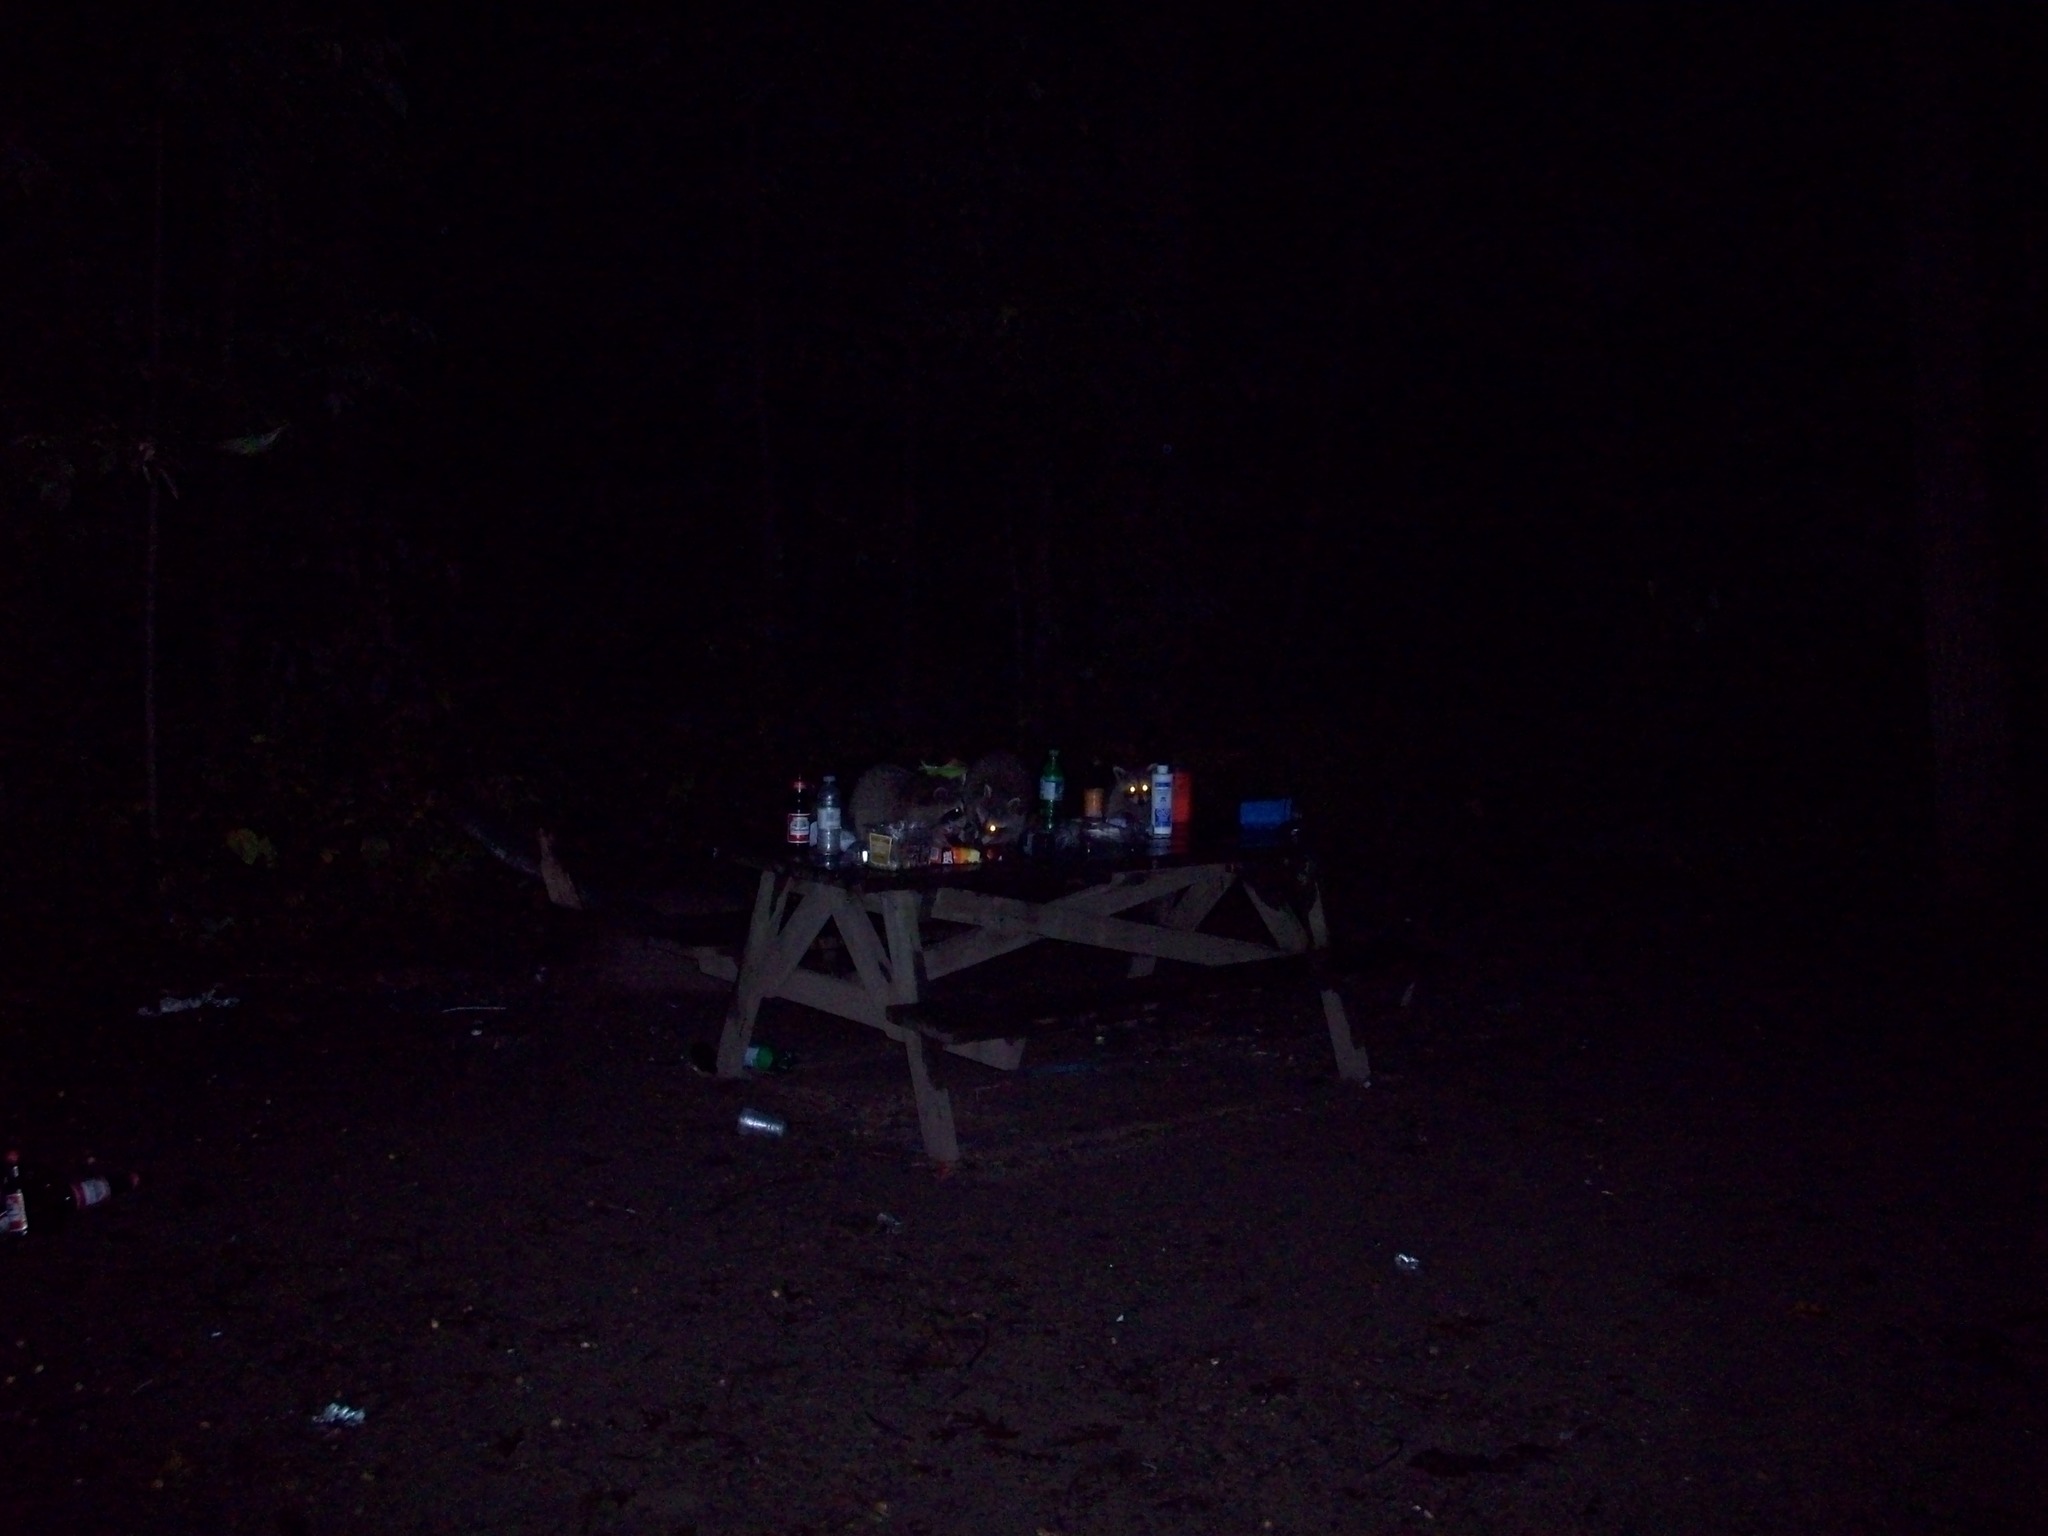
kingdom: Animalia
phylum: Chordata
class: Mammalia
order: Carnivora
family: Procyonidae
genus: Procyon
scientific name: Procyon lotor
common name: Raccoon
